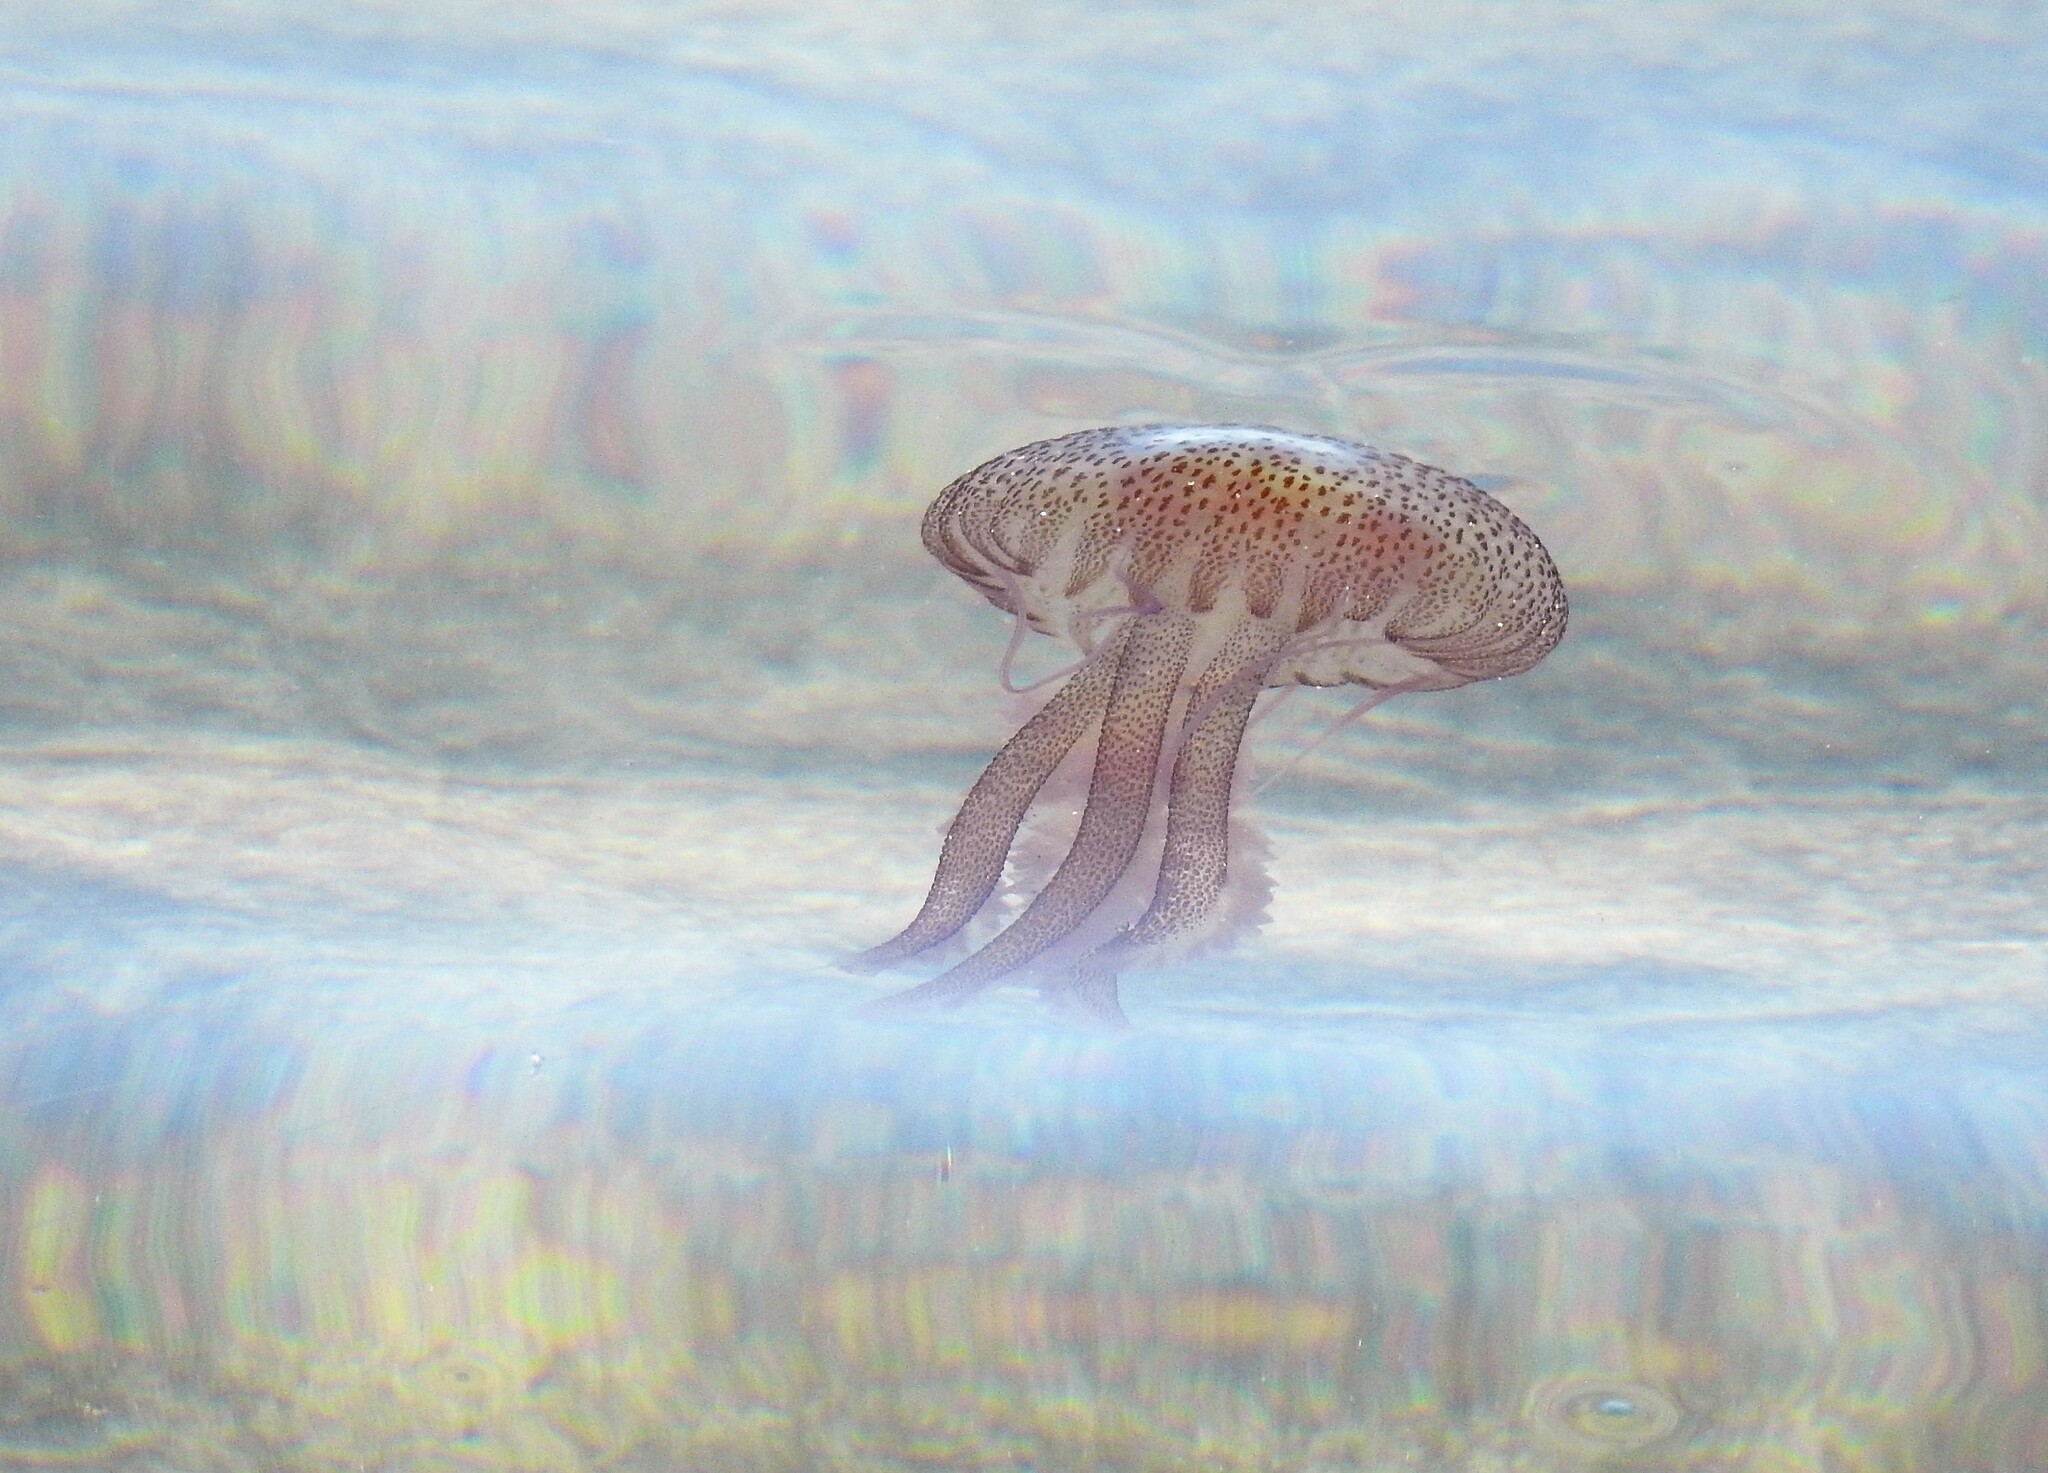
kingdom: Animalia
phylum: Cnidaria
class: Scyphozoa
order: Semaeostomeae
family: Pelagiidae
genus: Pelagia
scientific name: Pelagia noctiluca
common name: Mauve stinger
